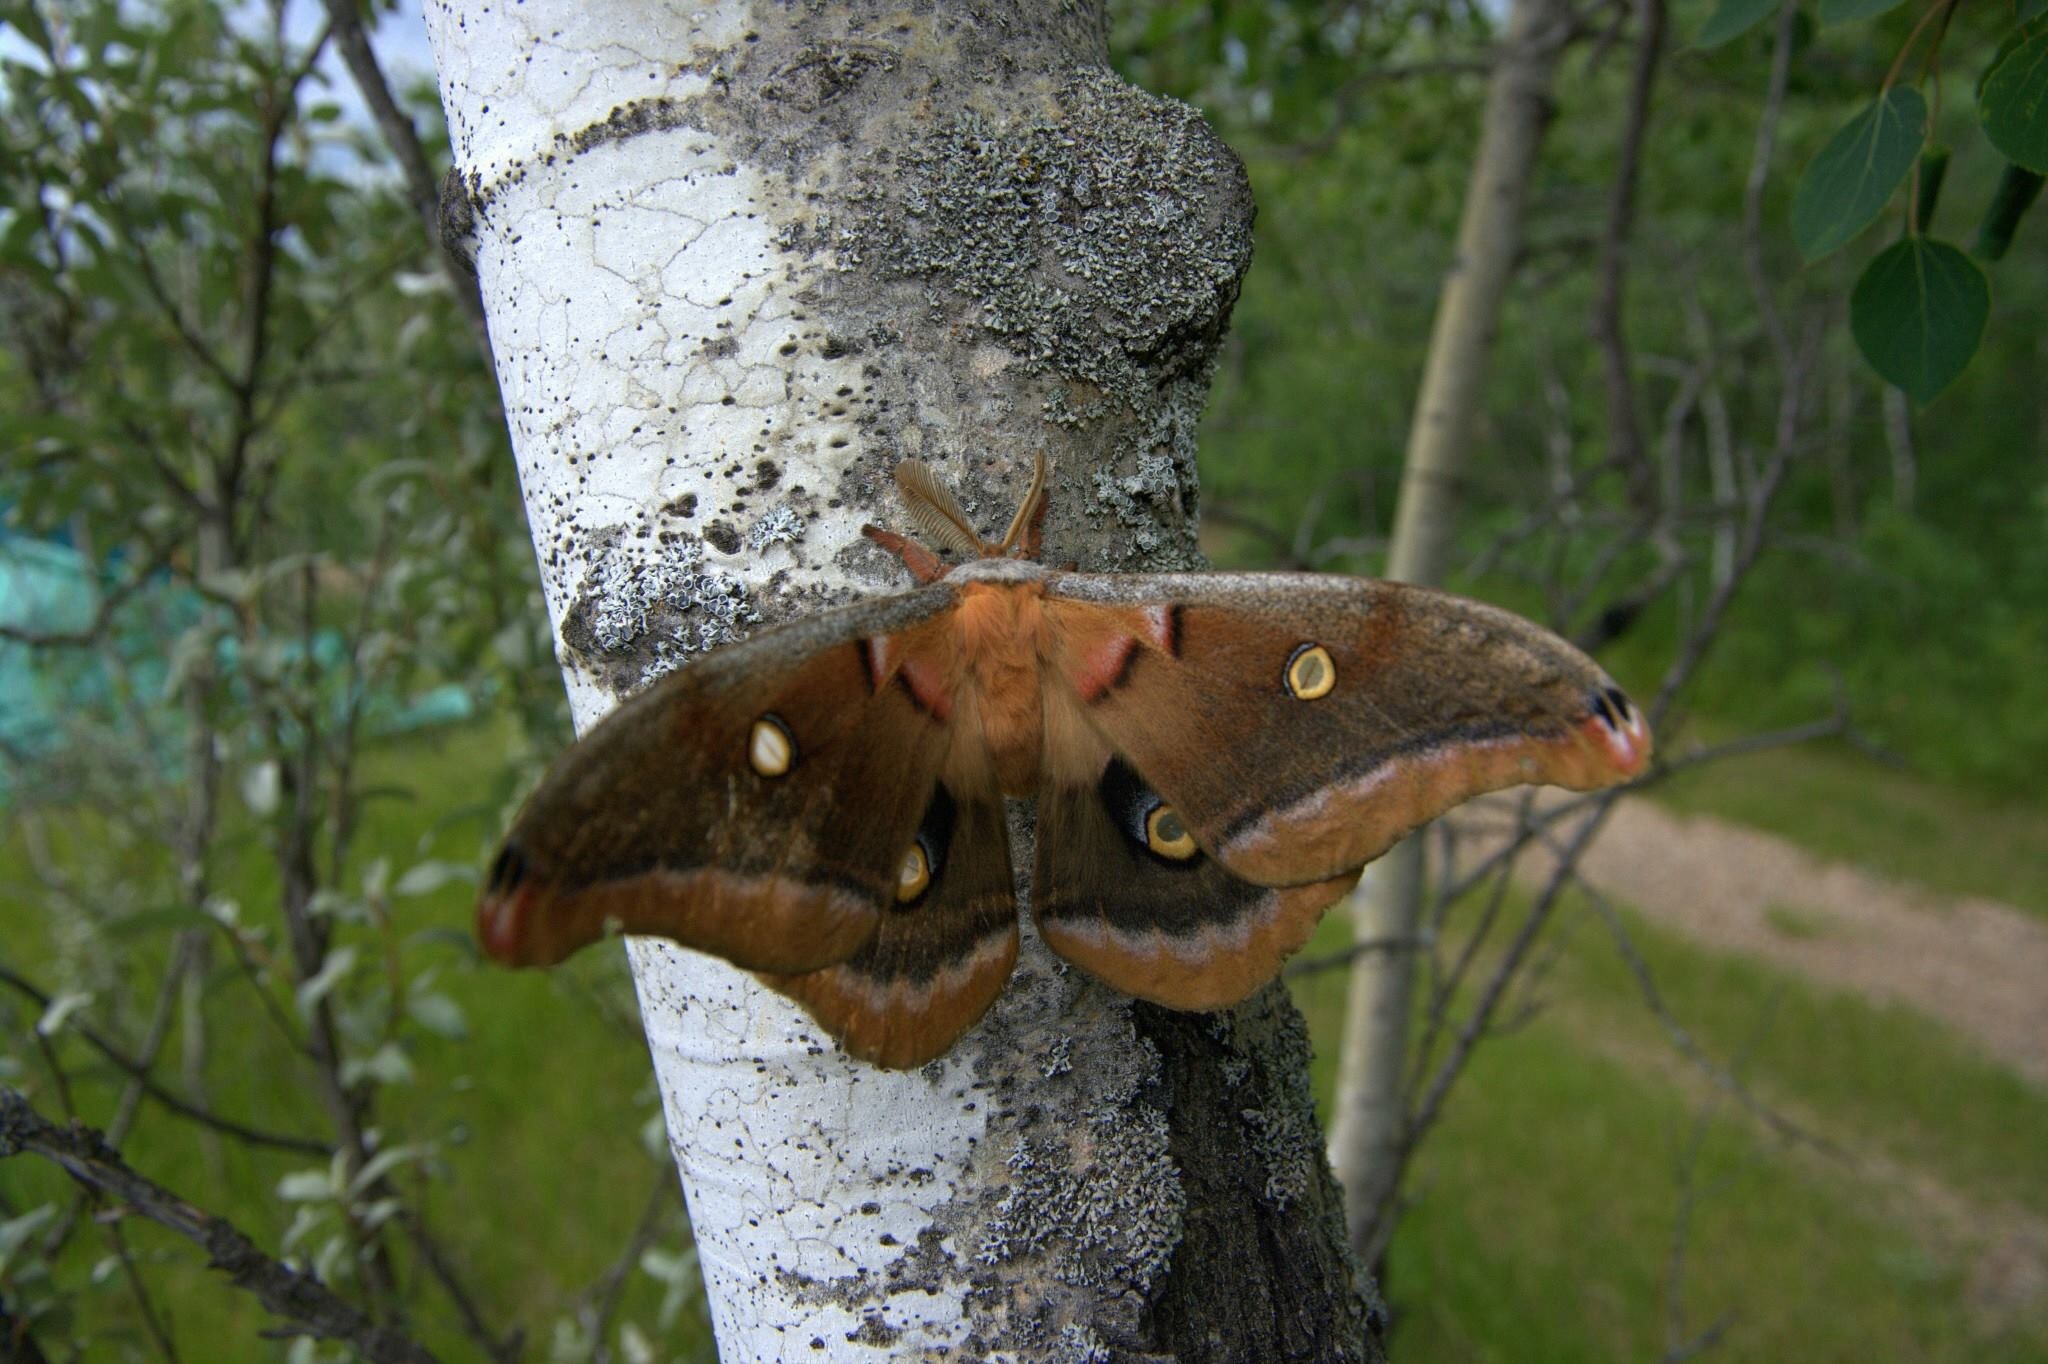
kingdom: Animalia
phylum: Arthropoda
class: Insecta
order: Lepidoptera
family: Saturniidae
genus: Antheraea
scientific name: Antheraea polyphemus
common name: Polyphemus moth
